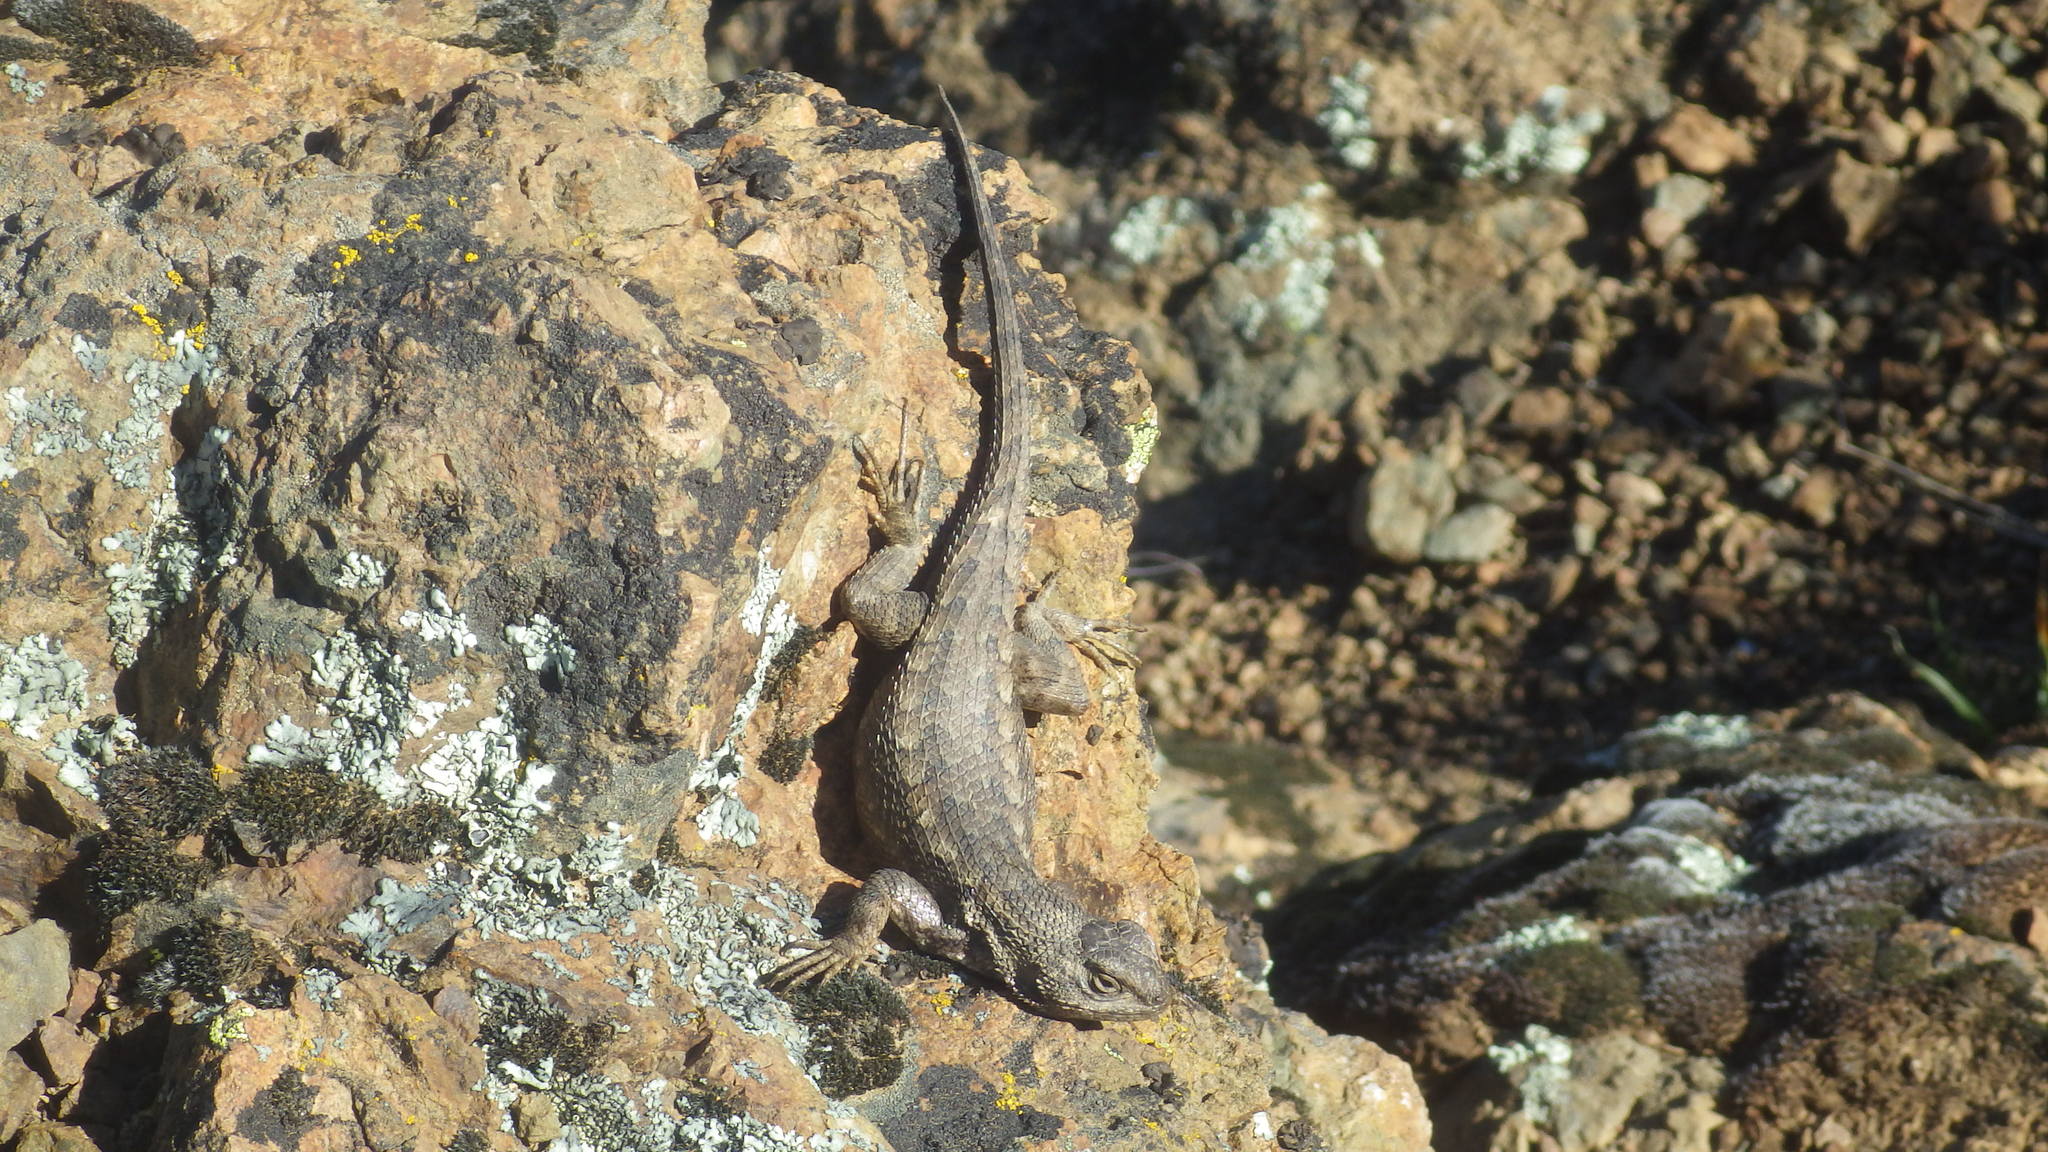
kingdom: Animalia
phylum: Chordata
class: Squamata
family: Phrynosomatidae
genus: Sceloporus
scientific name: Sceloporus occidentalis
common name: Western fence lizard
